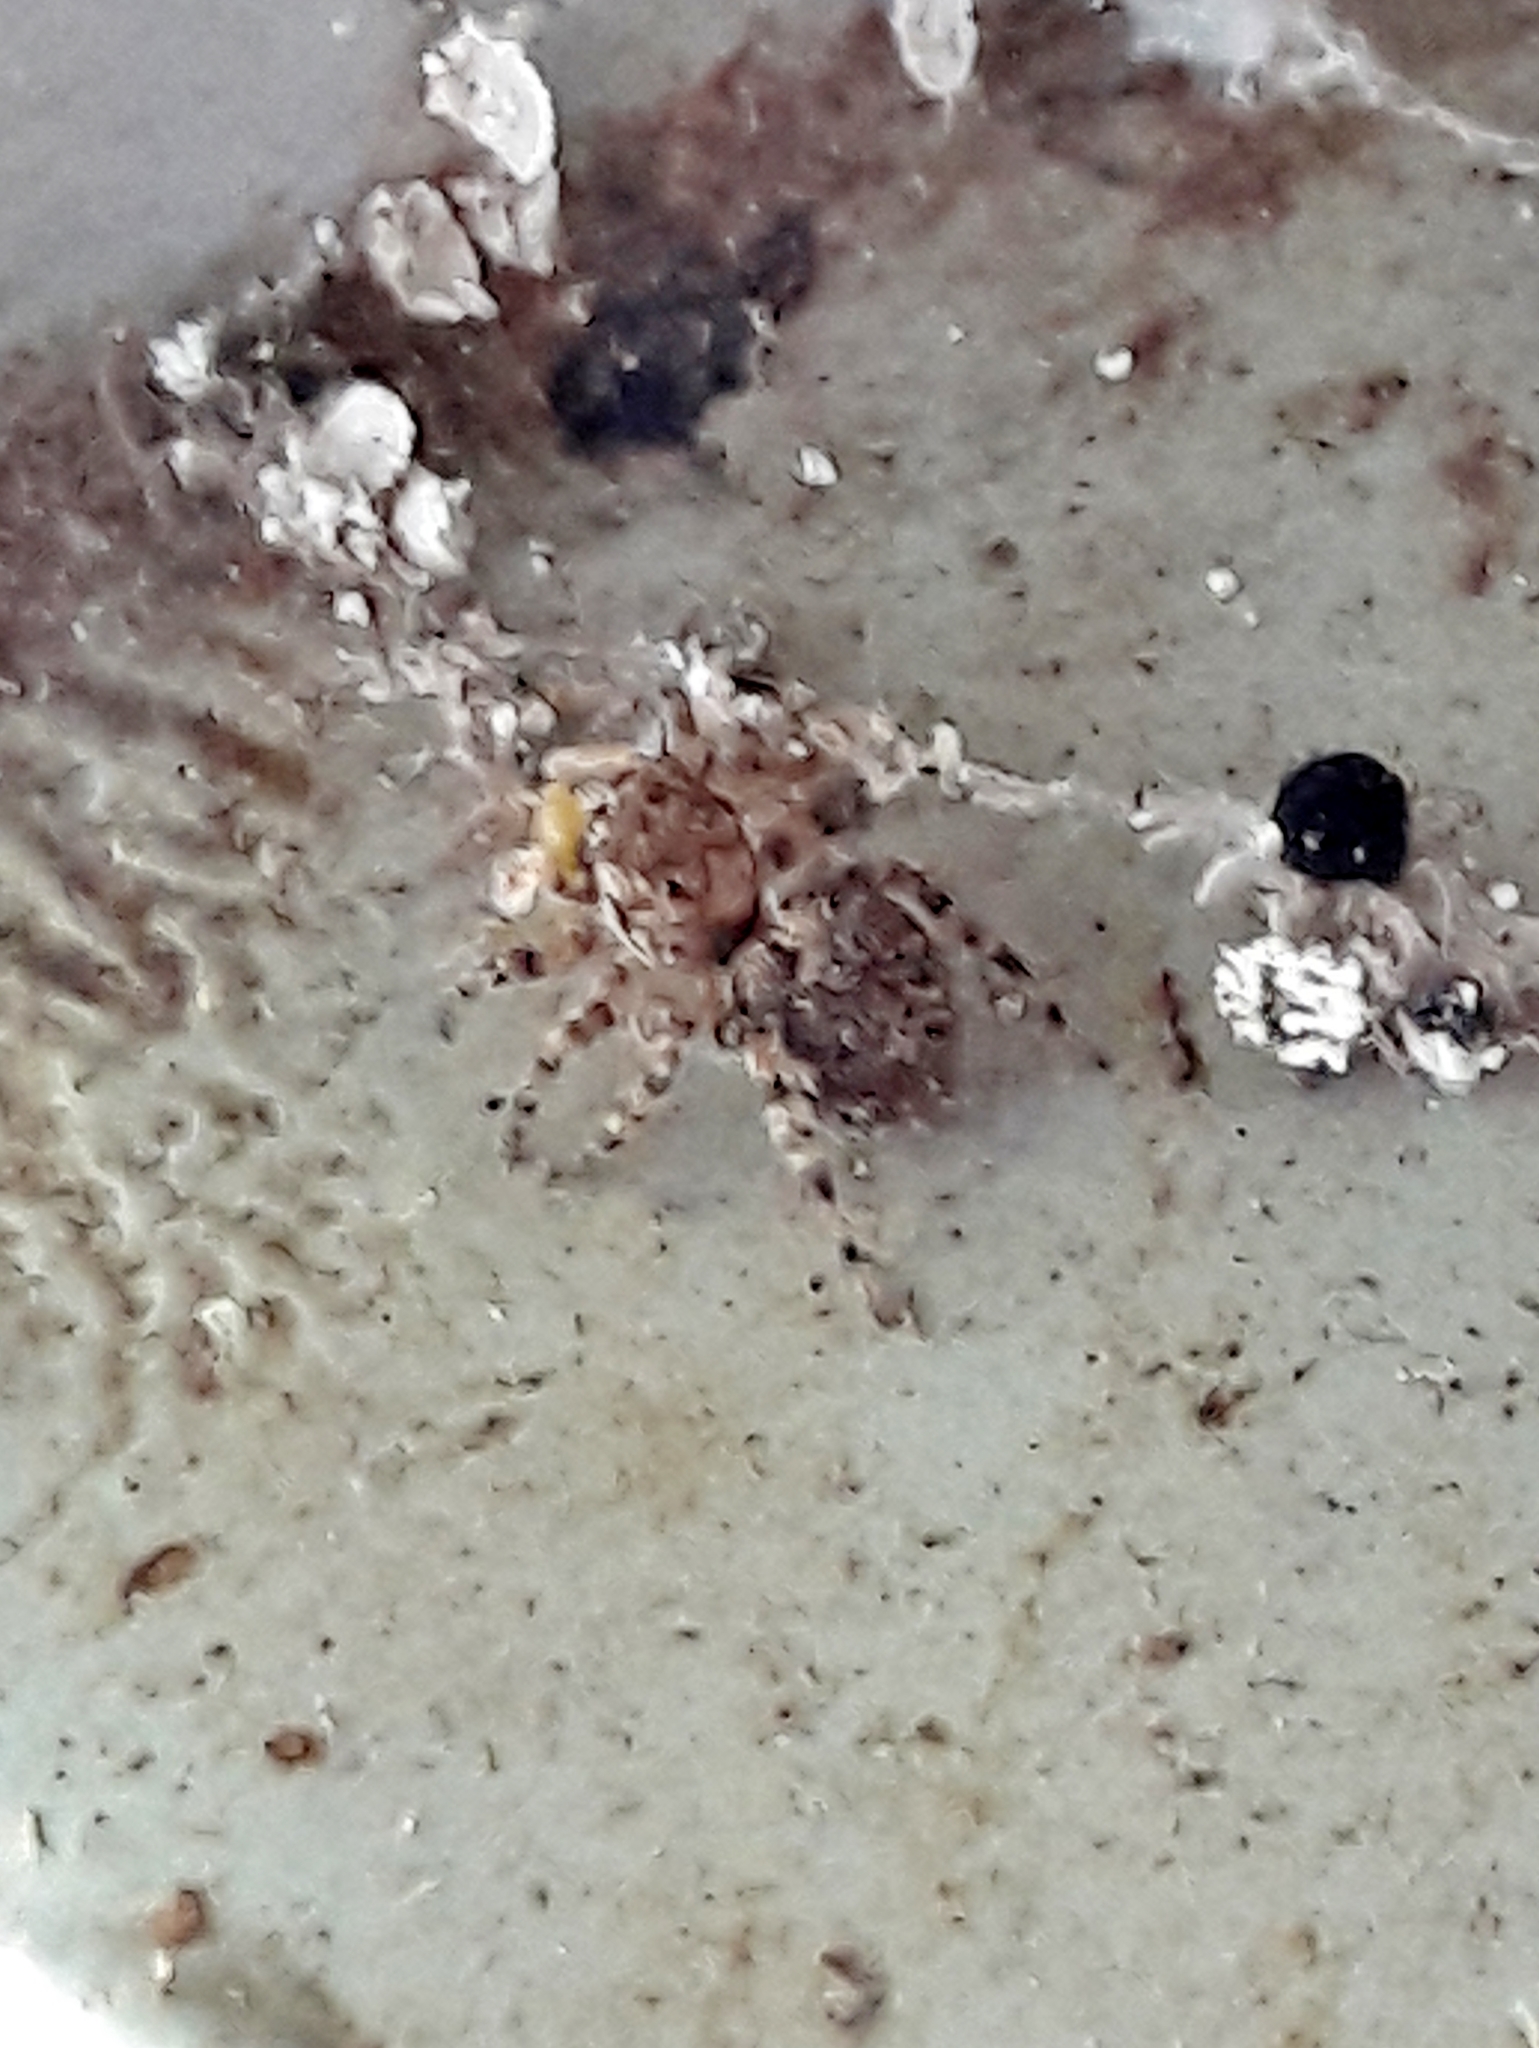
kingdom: Animalia
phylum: Arthropoda
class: Arachnida
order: Araneae
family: Salticidae
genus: Marma
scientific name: Marma nigritarsis
